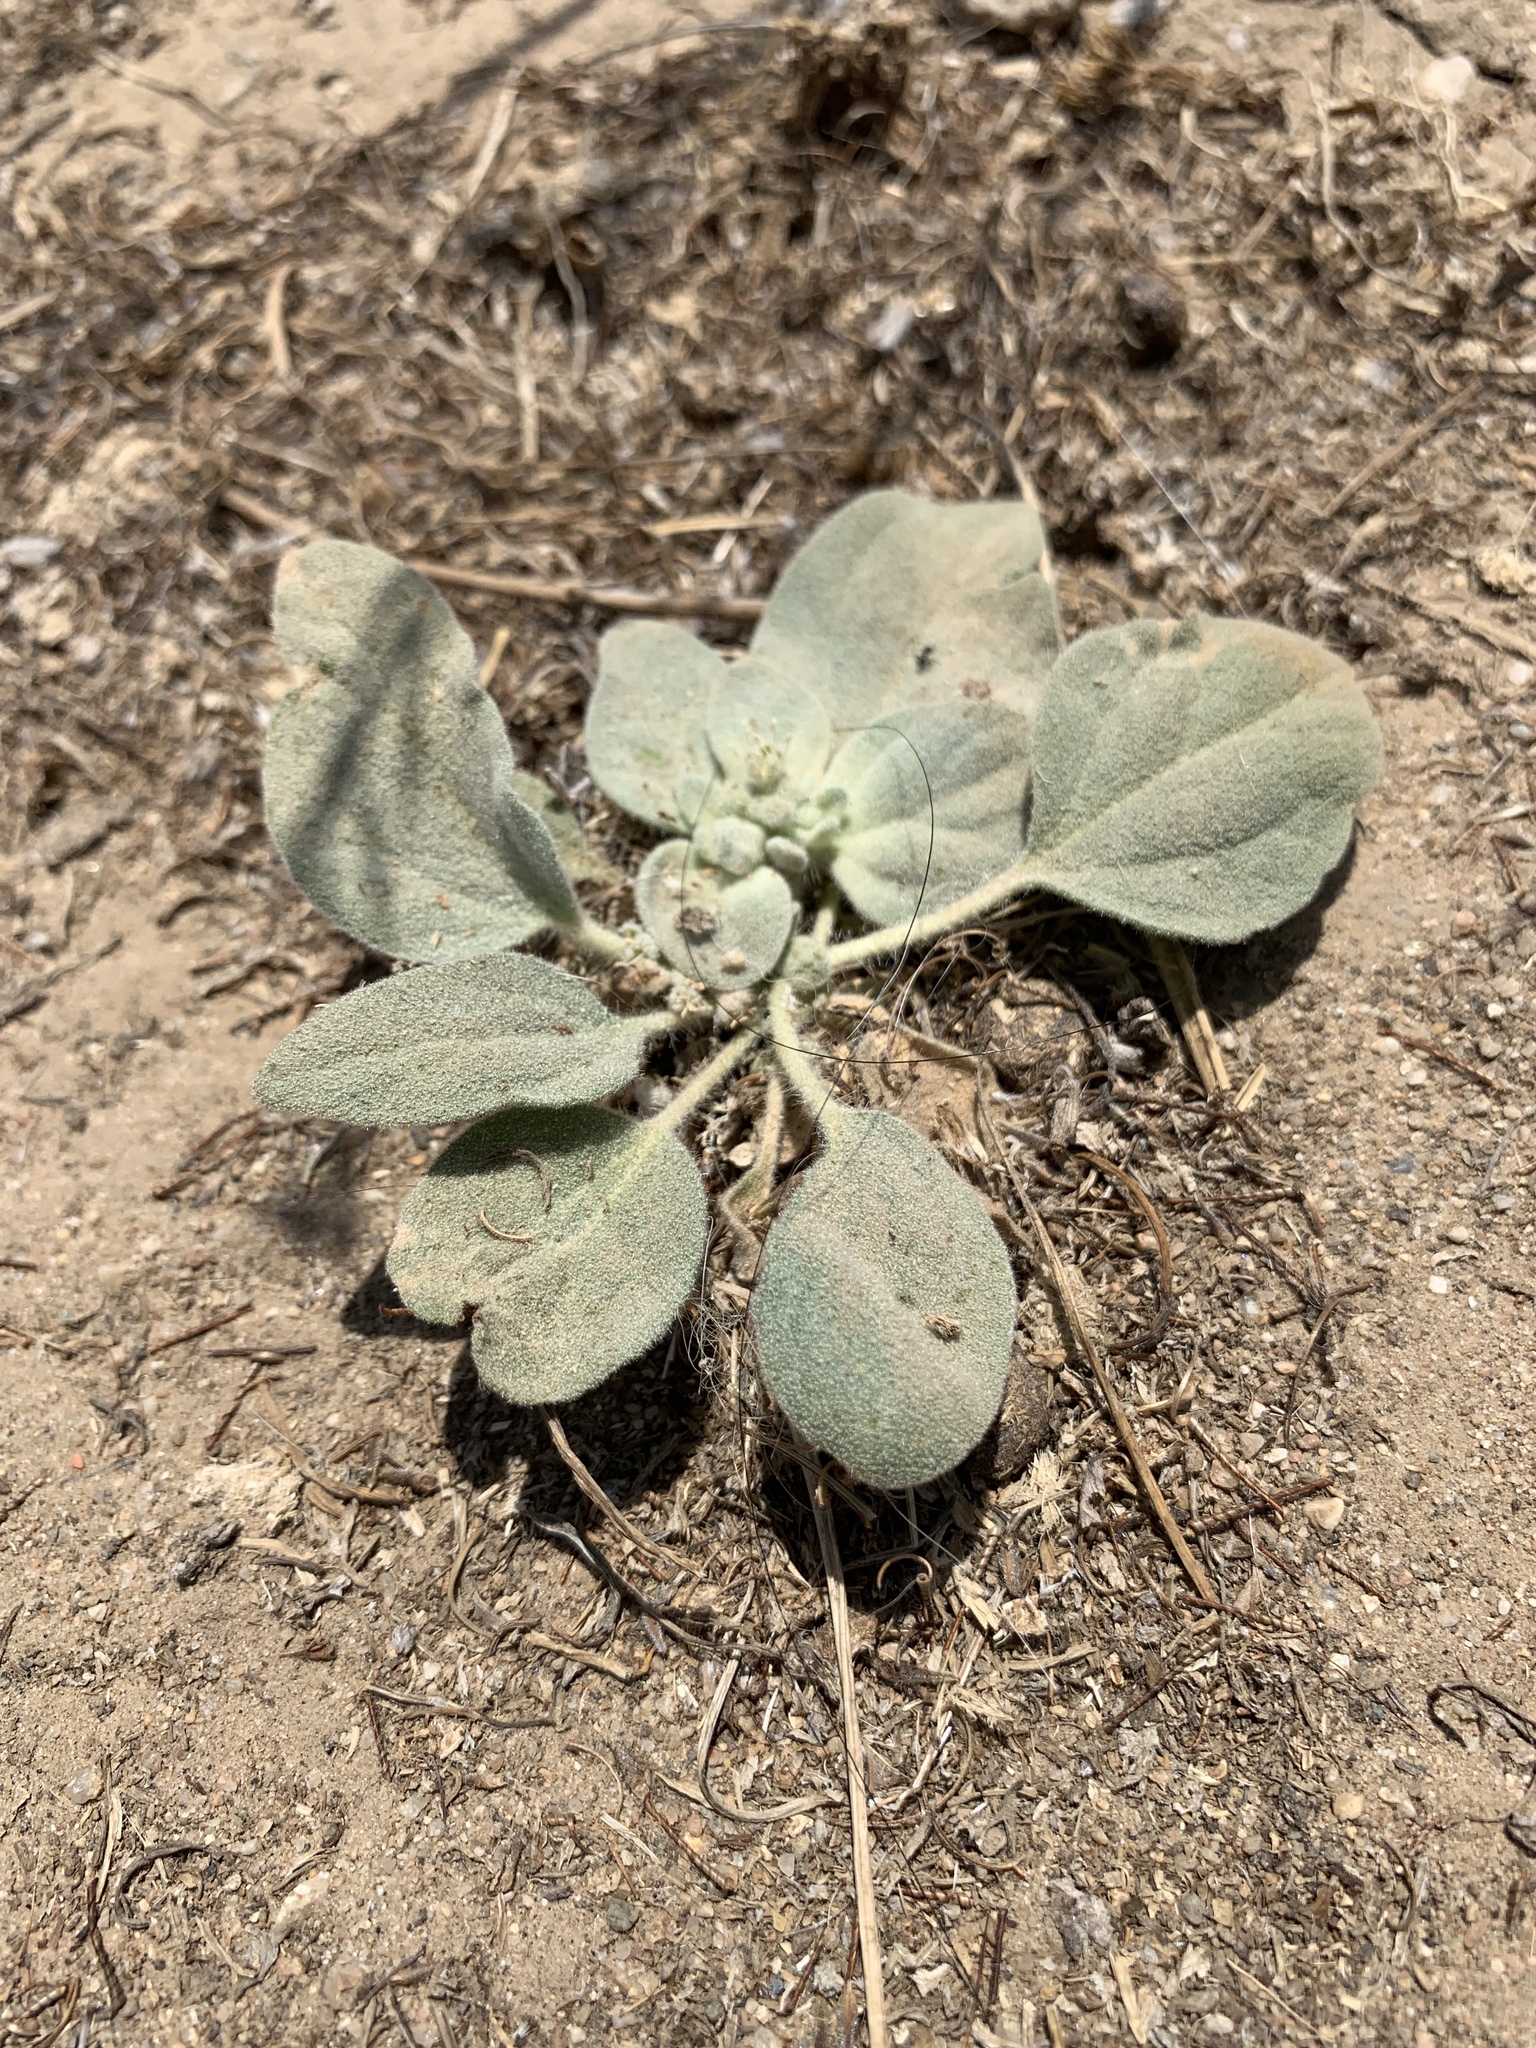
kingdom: Plantae
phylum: Tracheophyta
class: Magnoliopsida
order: Malpighiales
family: Euphorbiaceae
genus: Croton
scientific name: Croton setiger
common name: Dove weed
